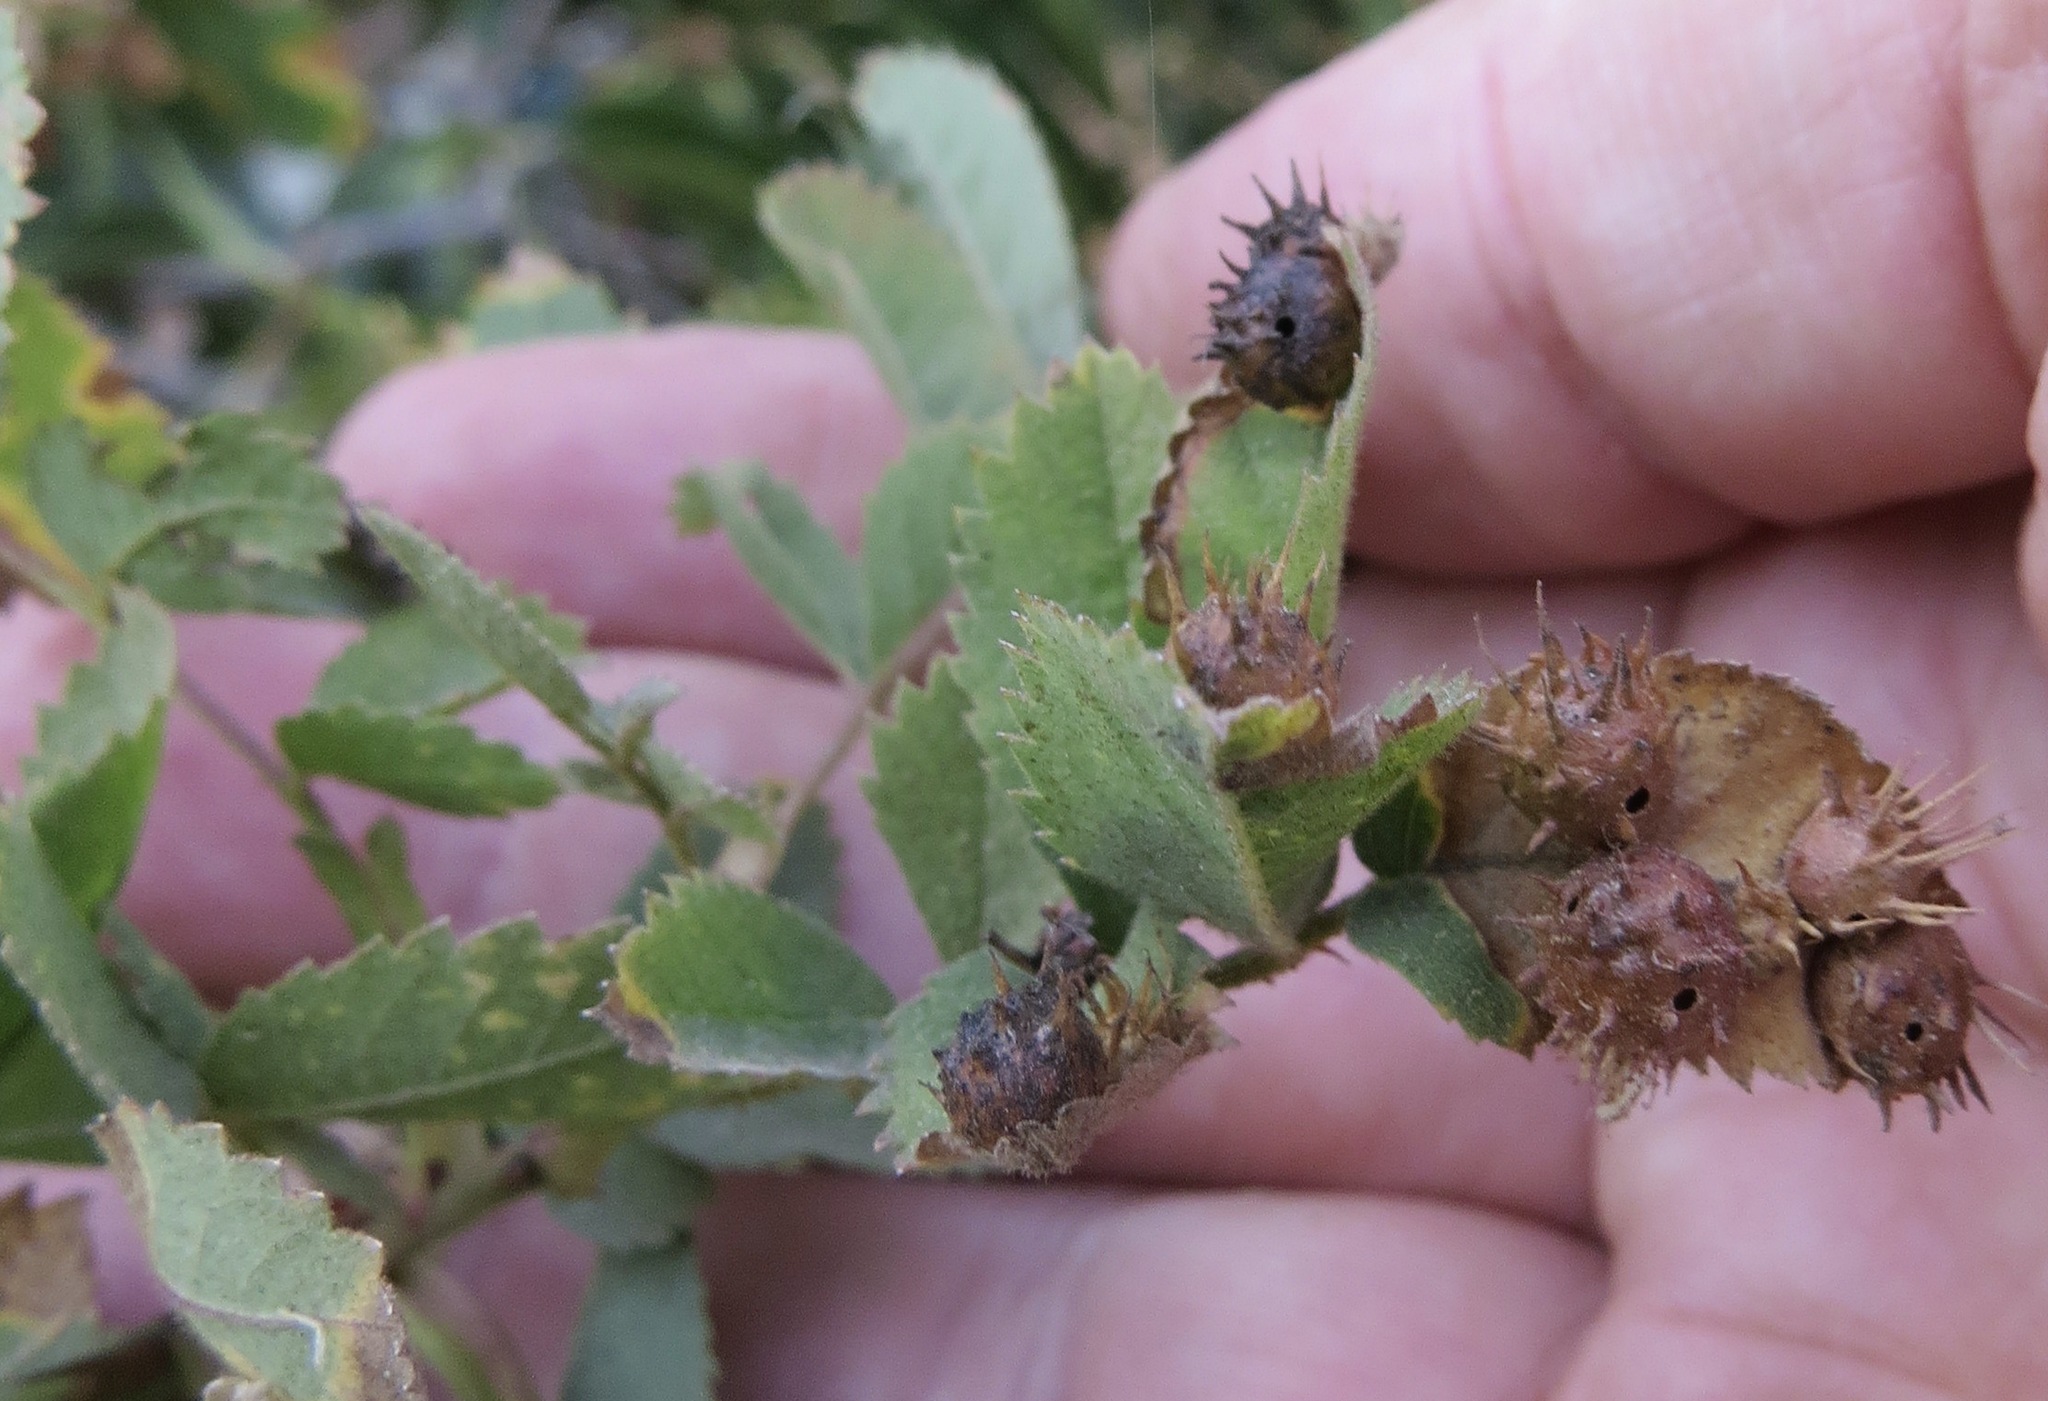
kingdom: Animalia
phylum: Arthropoda
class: Insecta
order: Hymenoptera
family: Cynipidae
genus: Diplolepis
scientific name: Diplolepis polita
